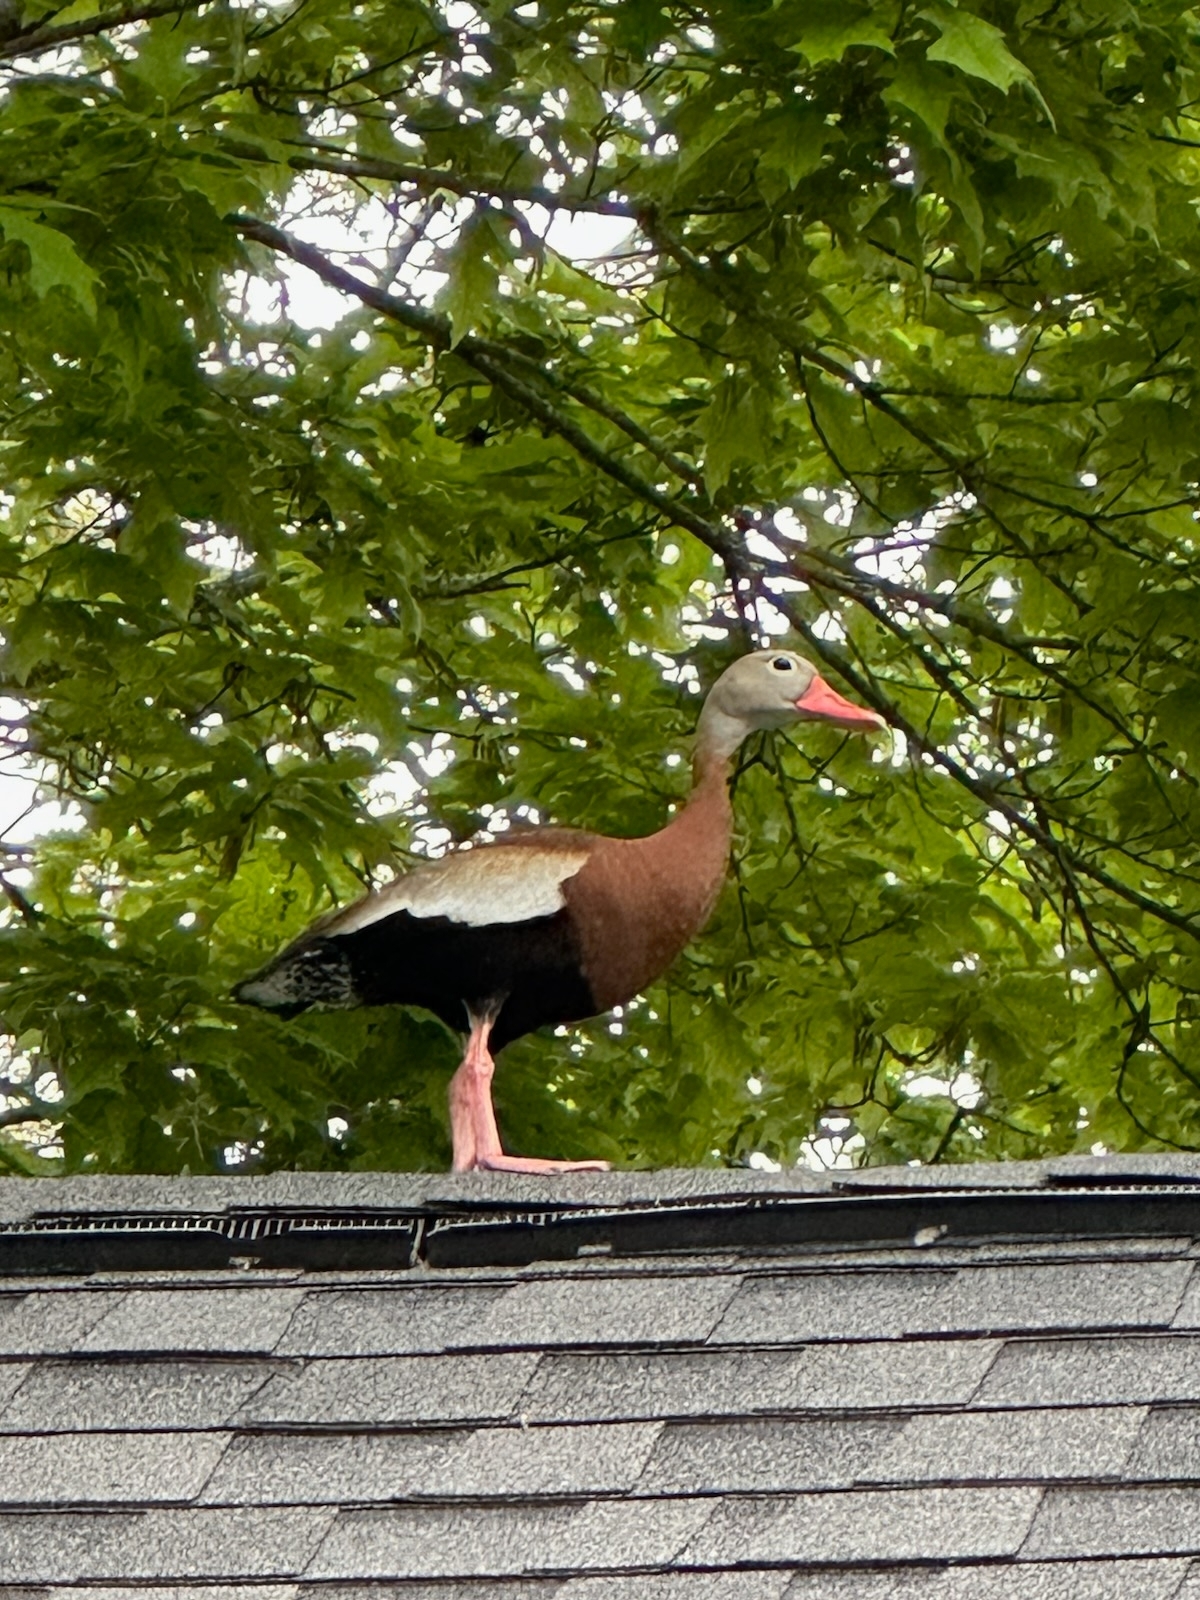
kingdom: Animalia
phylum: Chordata
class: Aves
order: Anseriformes
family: Anatidae
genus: Dendrocygna
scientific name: Dendrocygna autumnalis
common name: Black-bellied whistling duck
